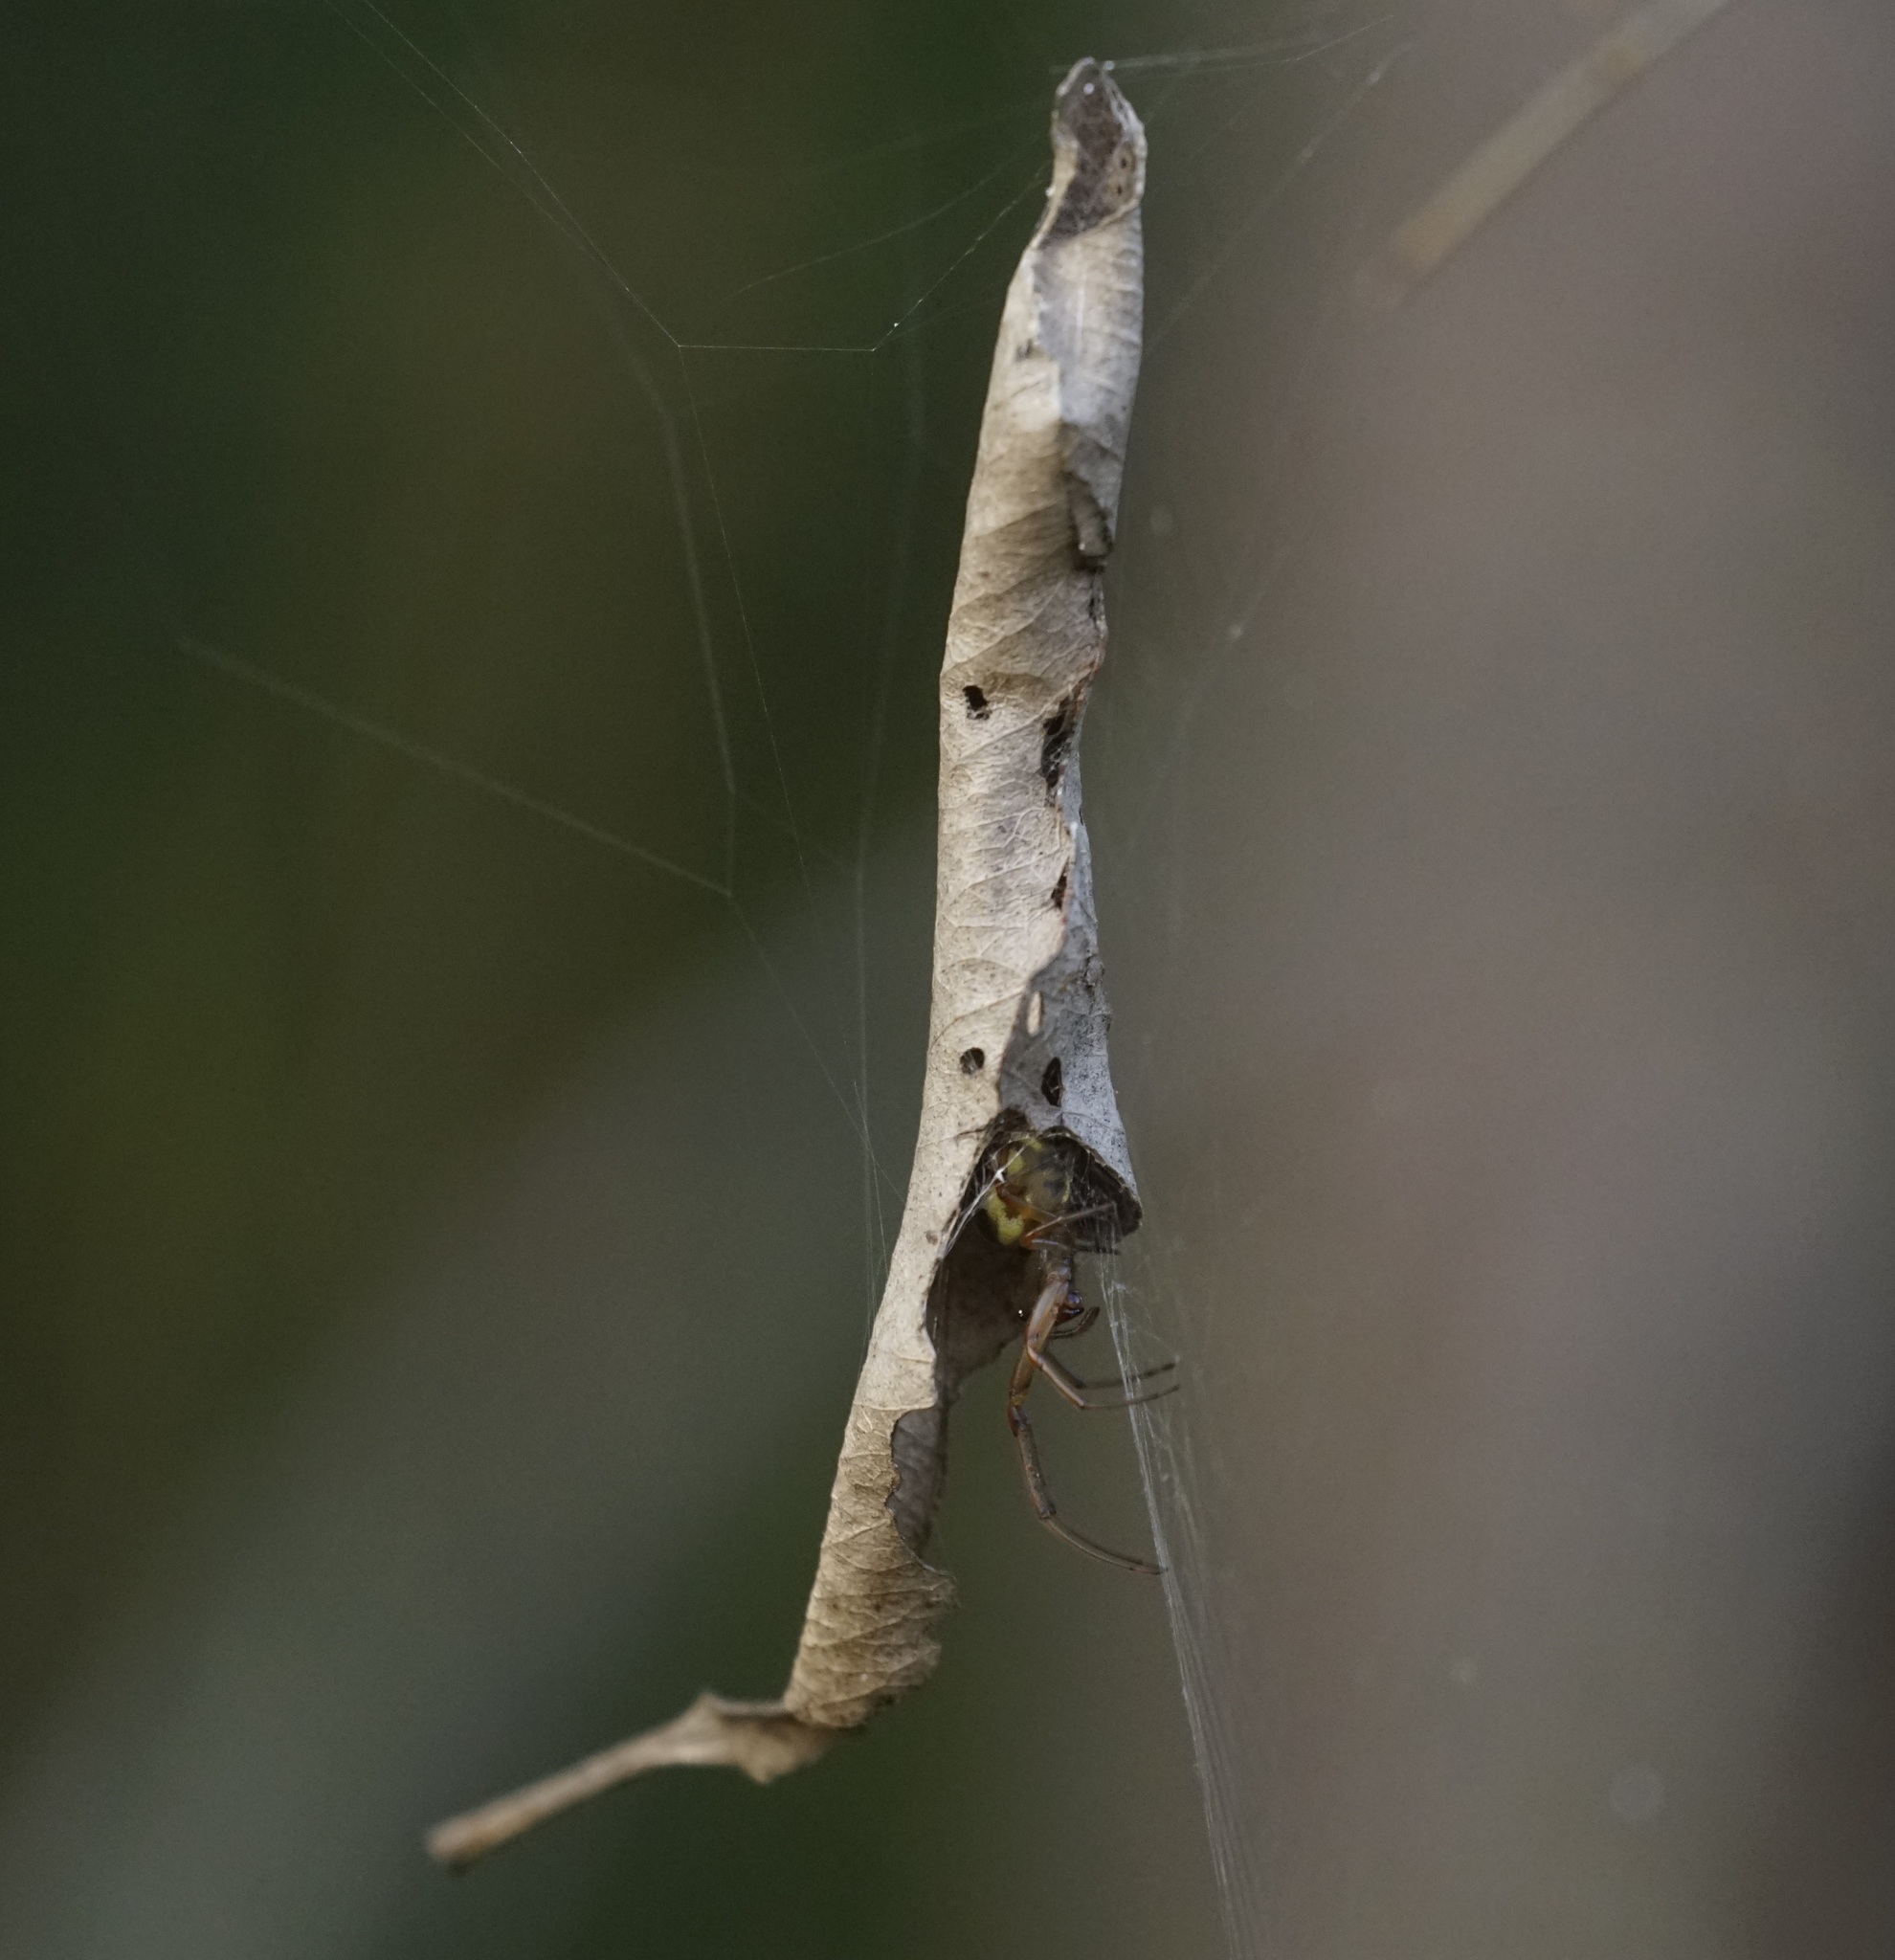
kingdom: Animalia
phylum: Arthropoda
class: Arachnida
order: Araneae
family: Araneidae
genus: Phonognatha
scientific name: Phonognatha graeffei
